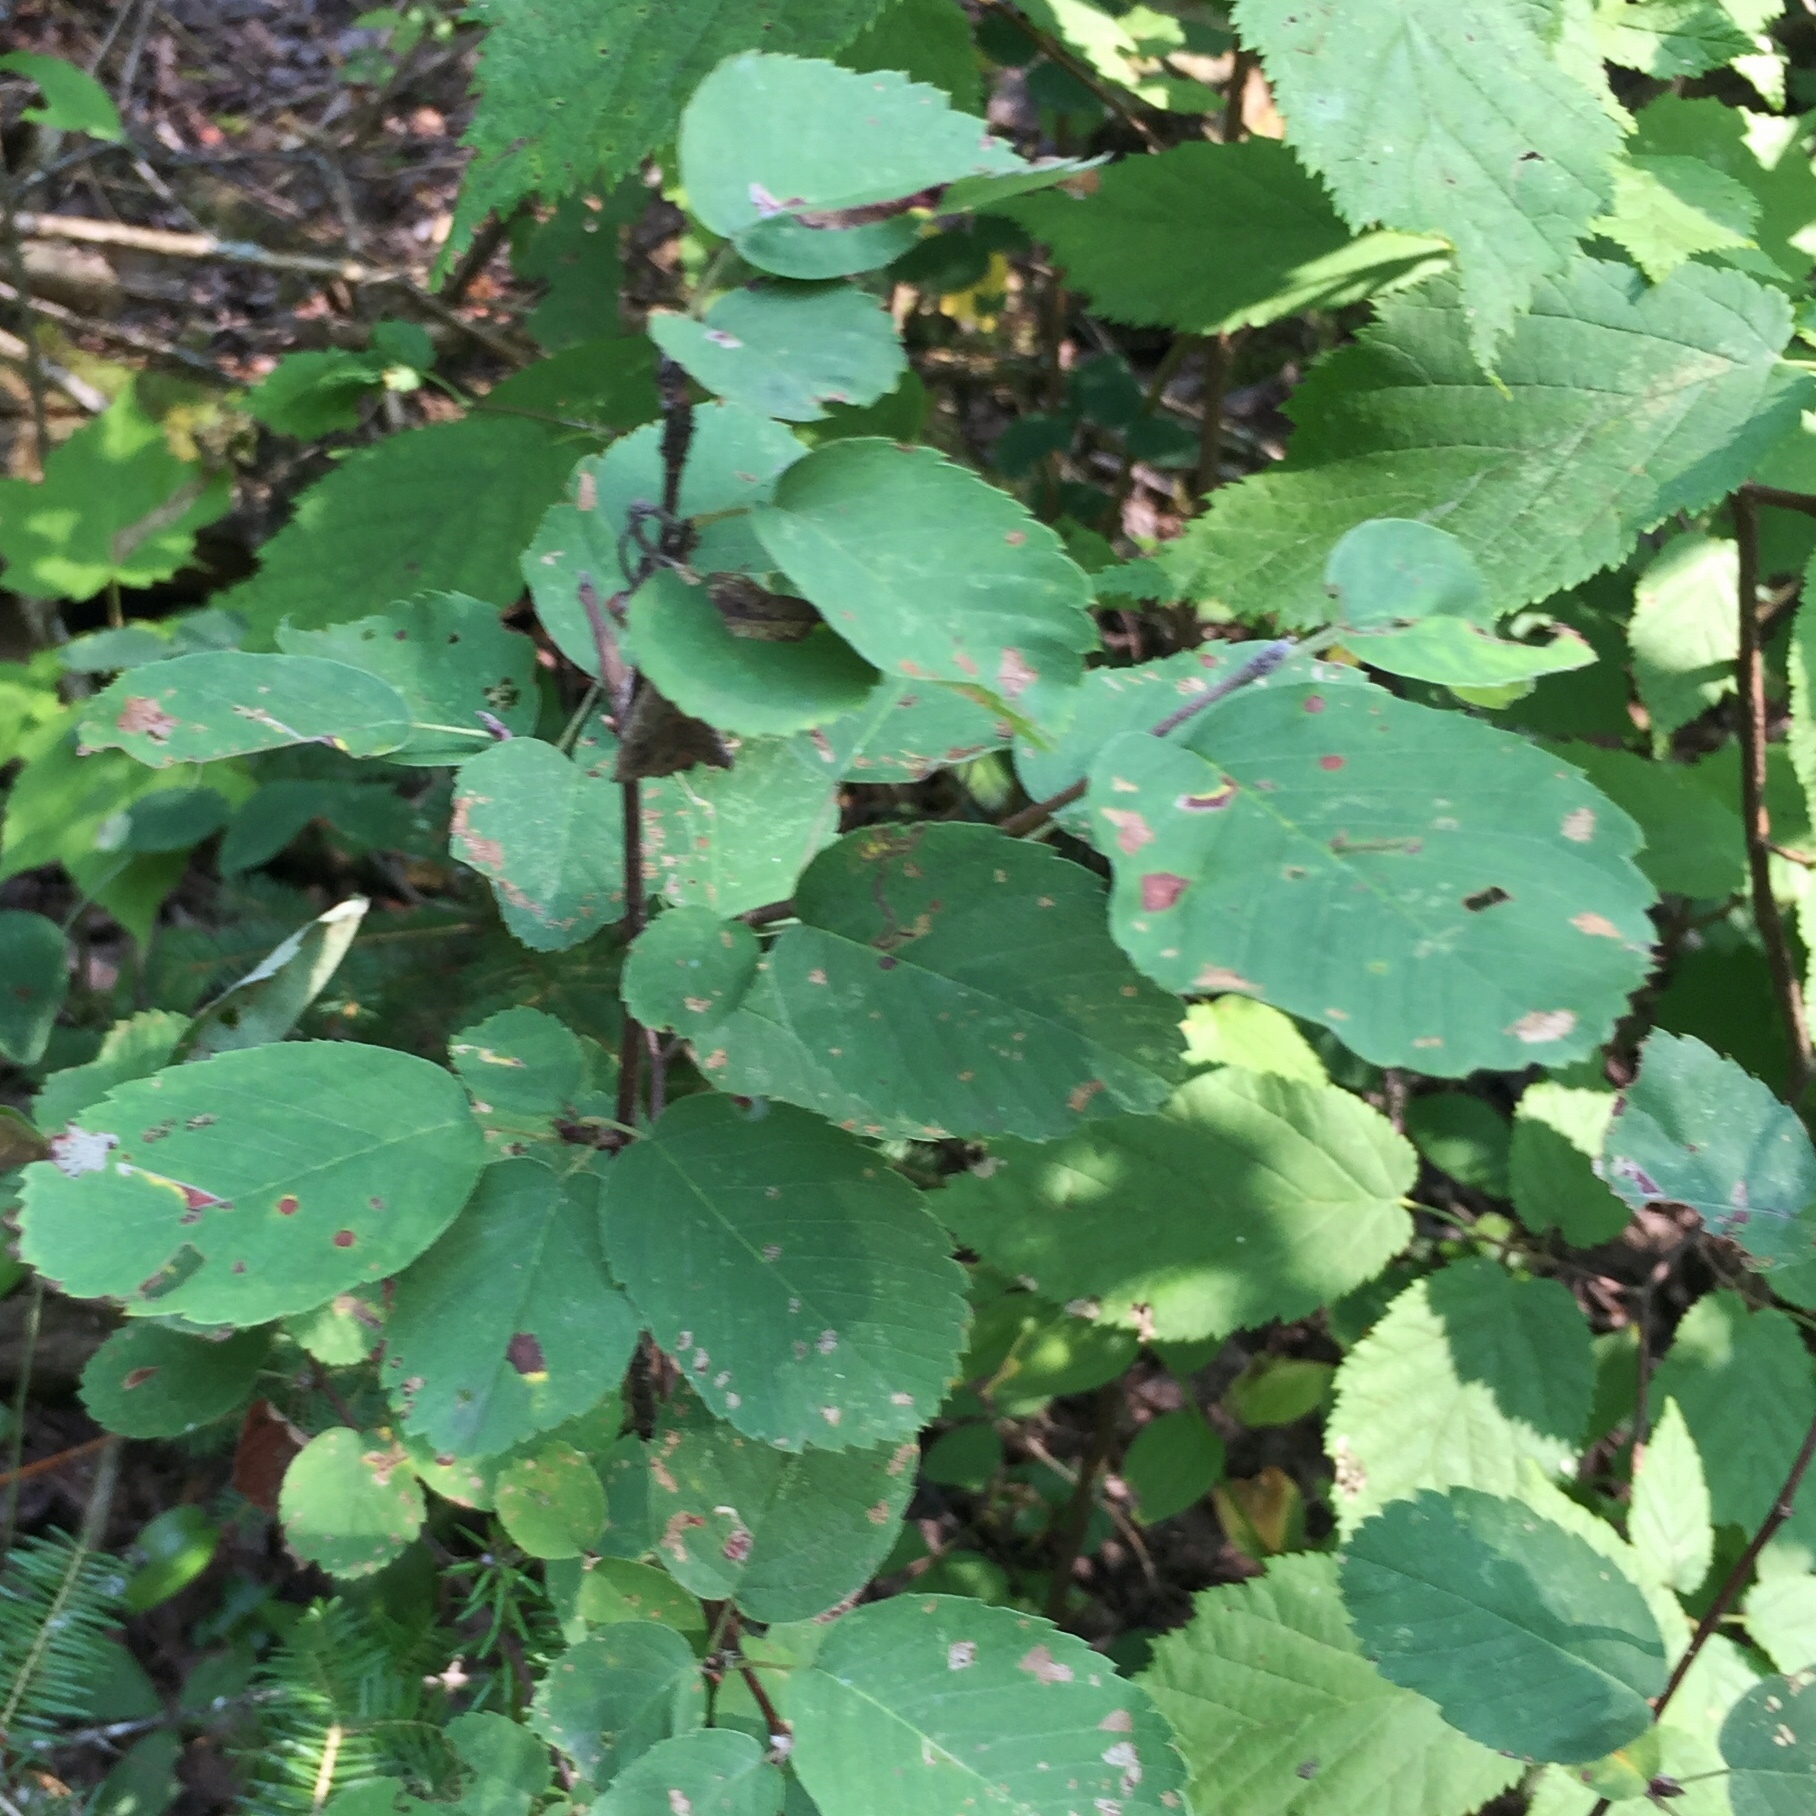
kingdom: Plantae
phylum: Tracheophyta
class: Magnoliopsida
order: Rosales
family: Rosaceae
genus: Amelanchier
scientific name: Amelanchier alnifolia
